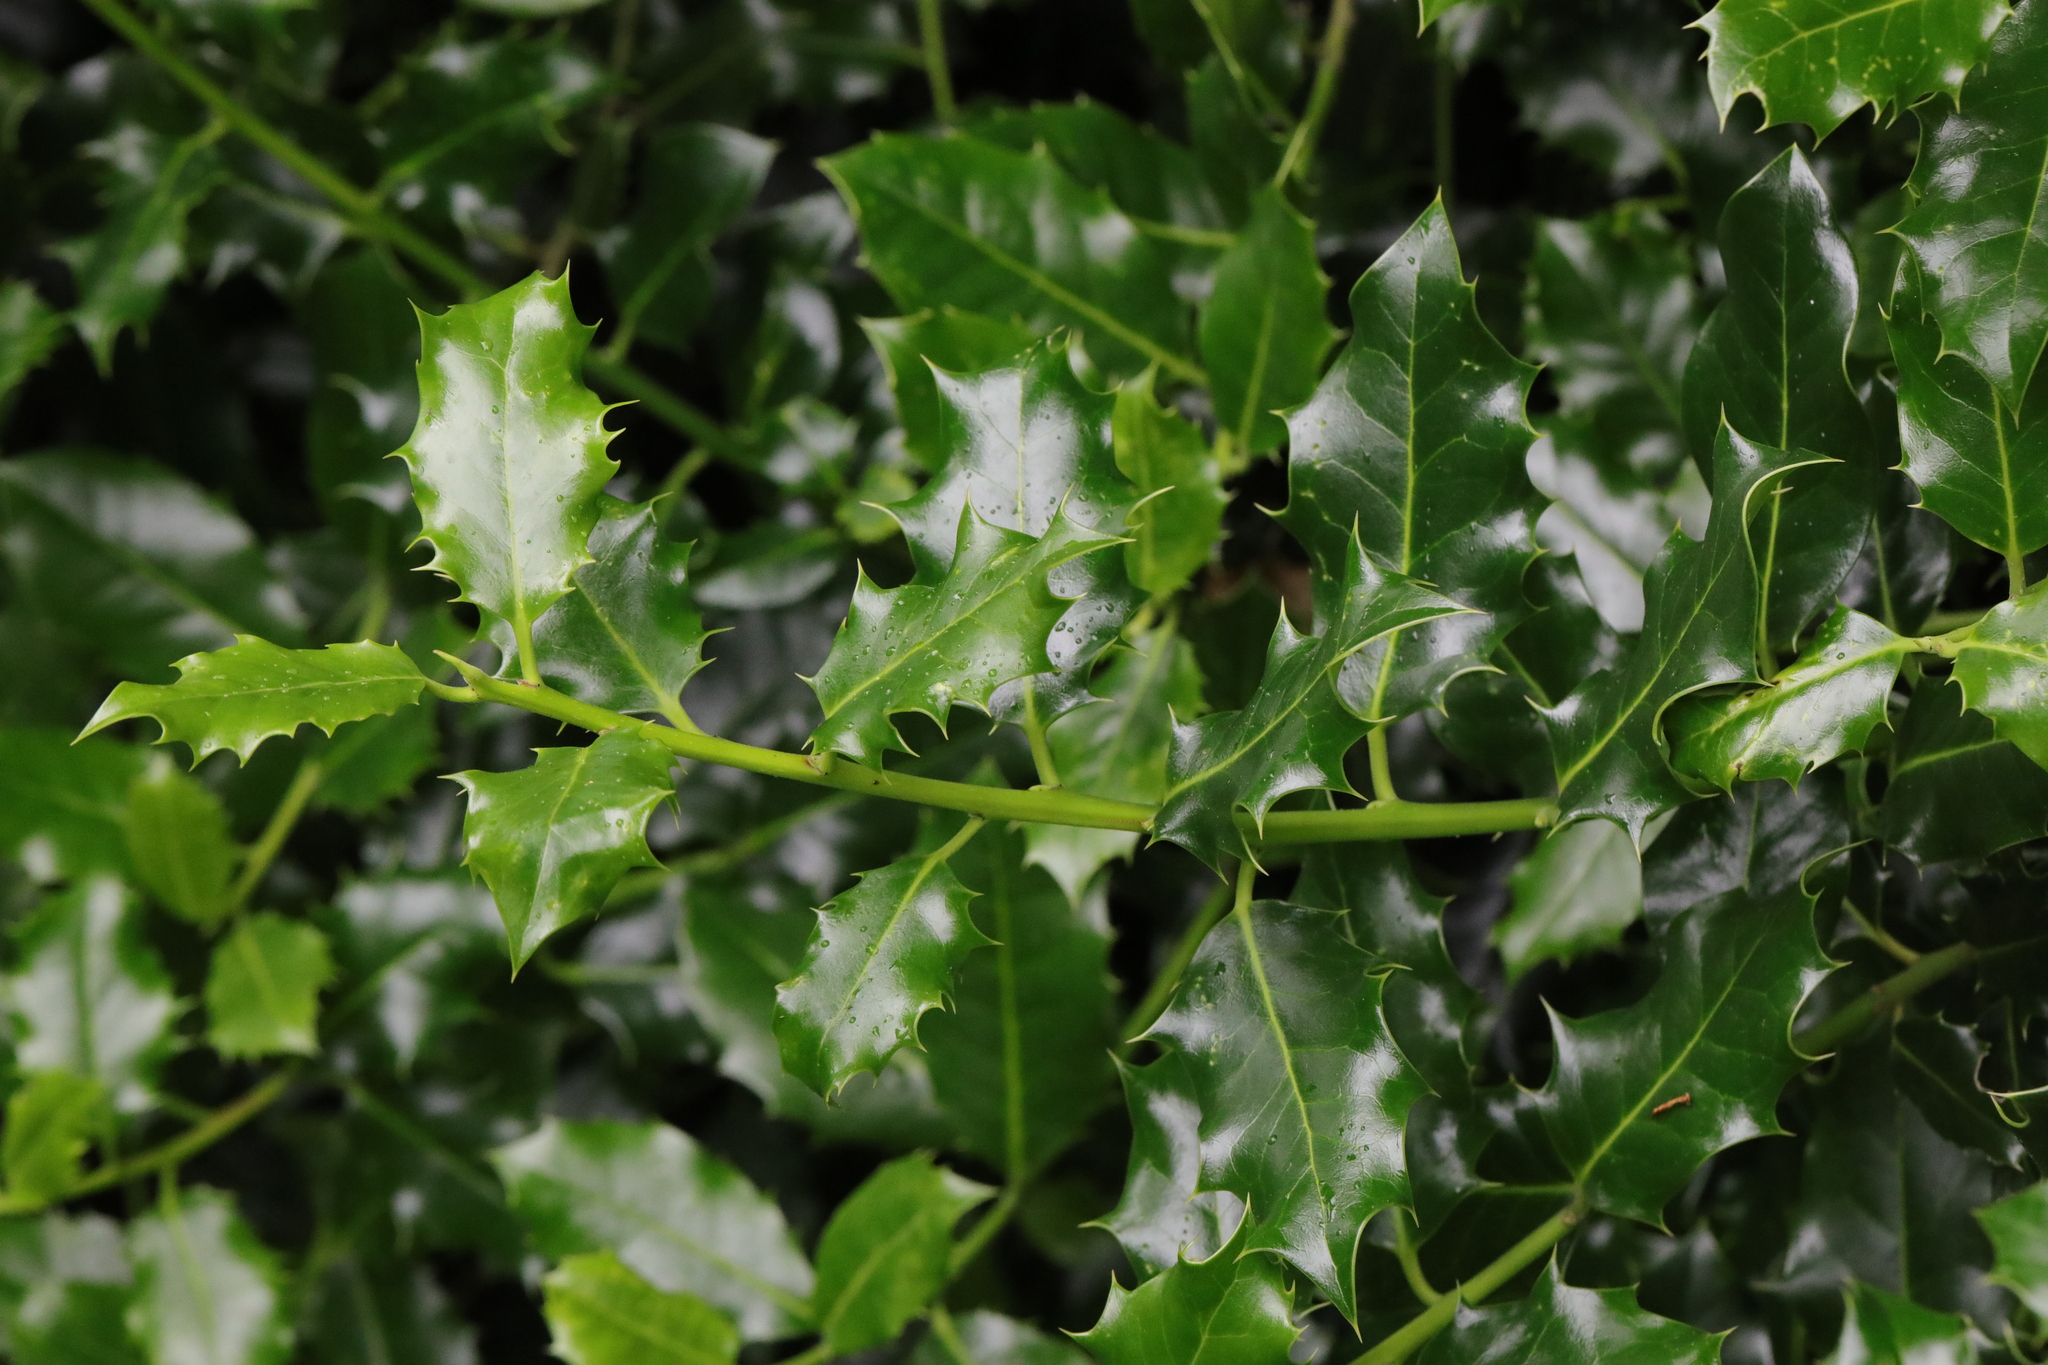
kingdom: Plantae
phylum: Tracheophyta
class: Magnoliopsida
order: Aquifoliales
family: Aquifoliaceae
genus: Ilex
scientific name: Ilex aquifolium
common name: English holly
